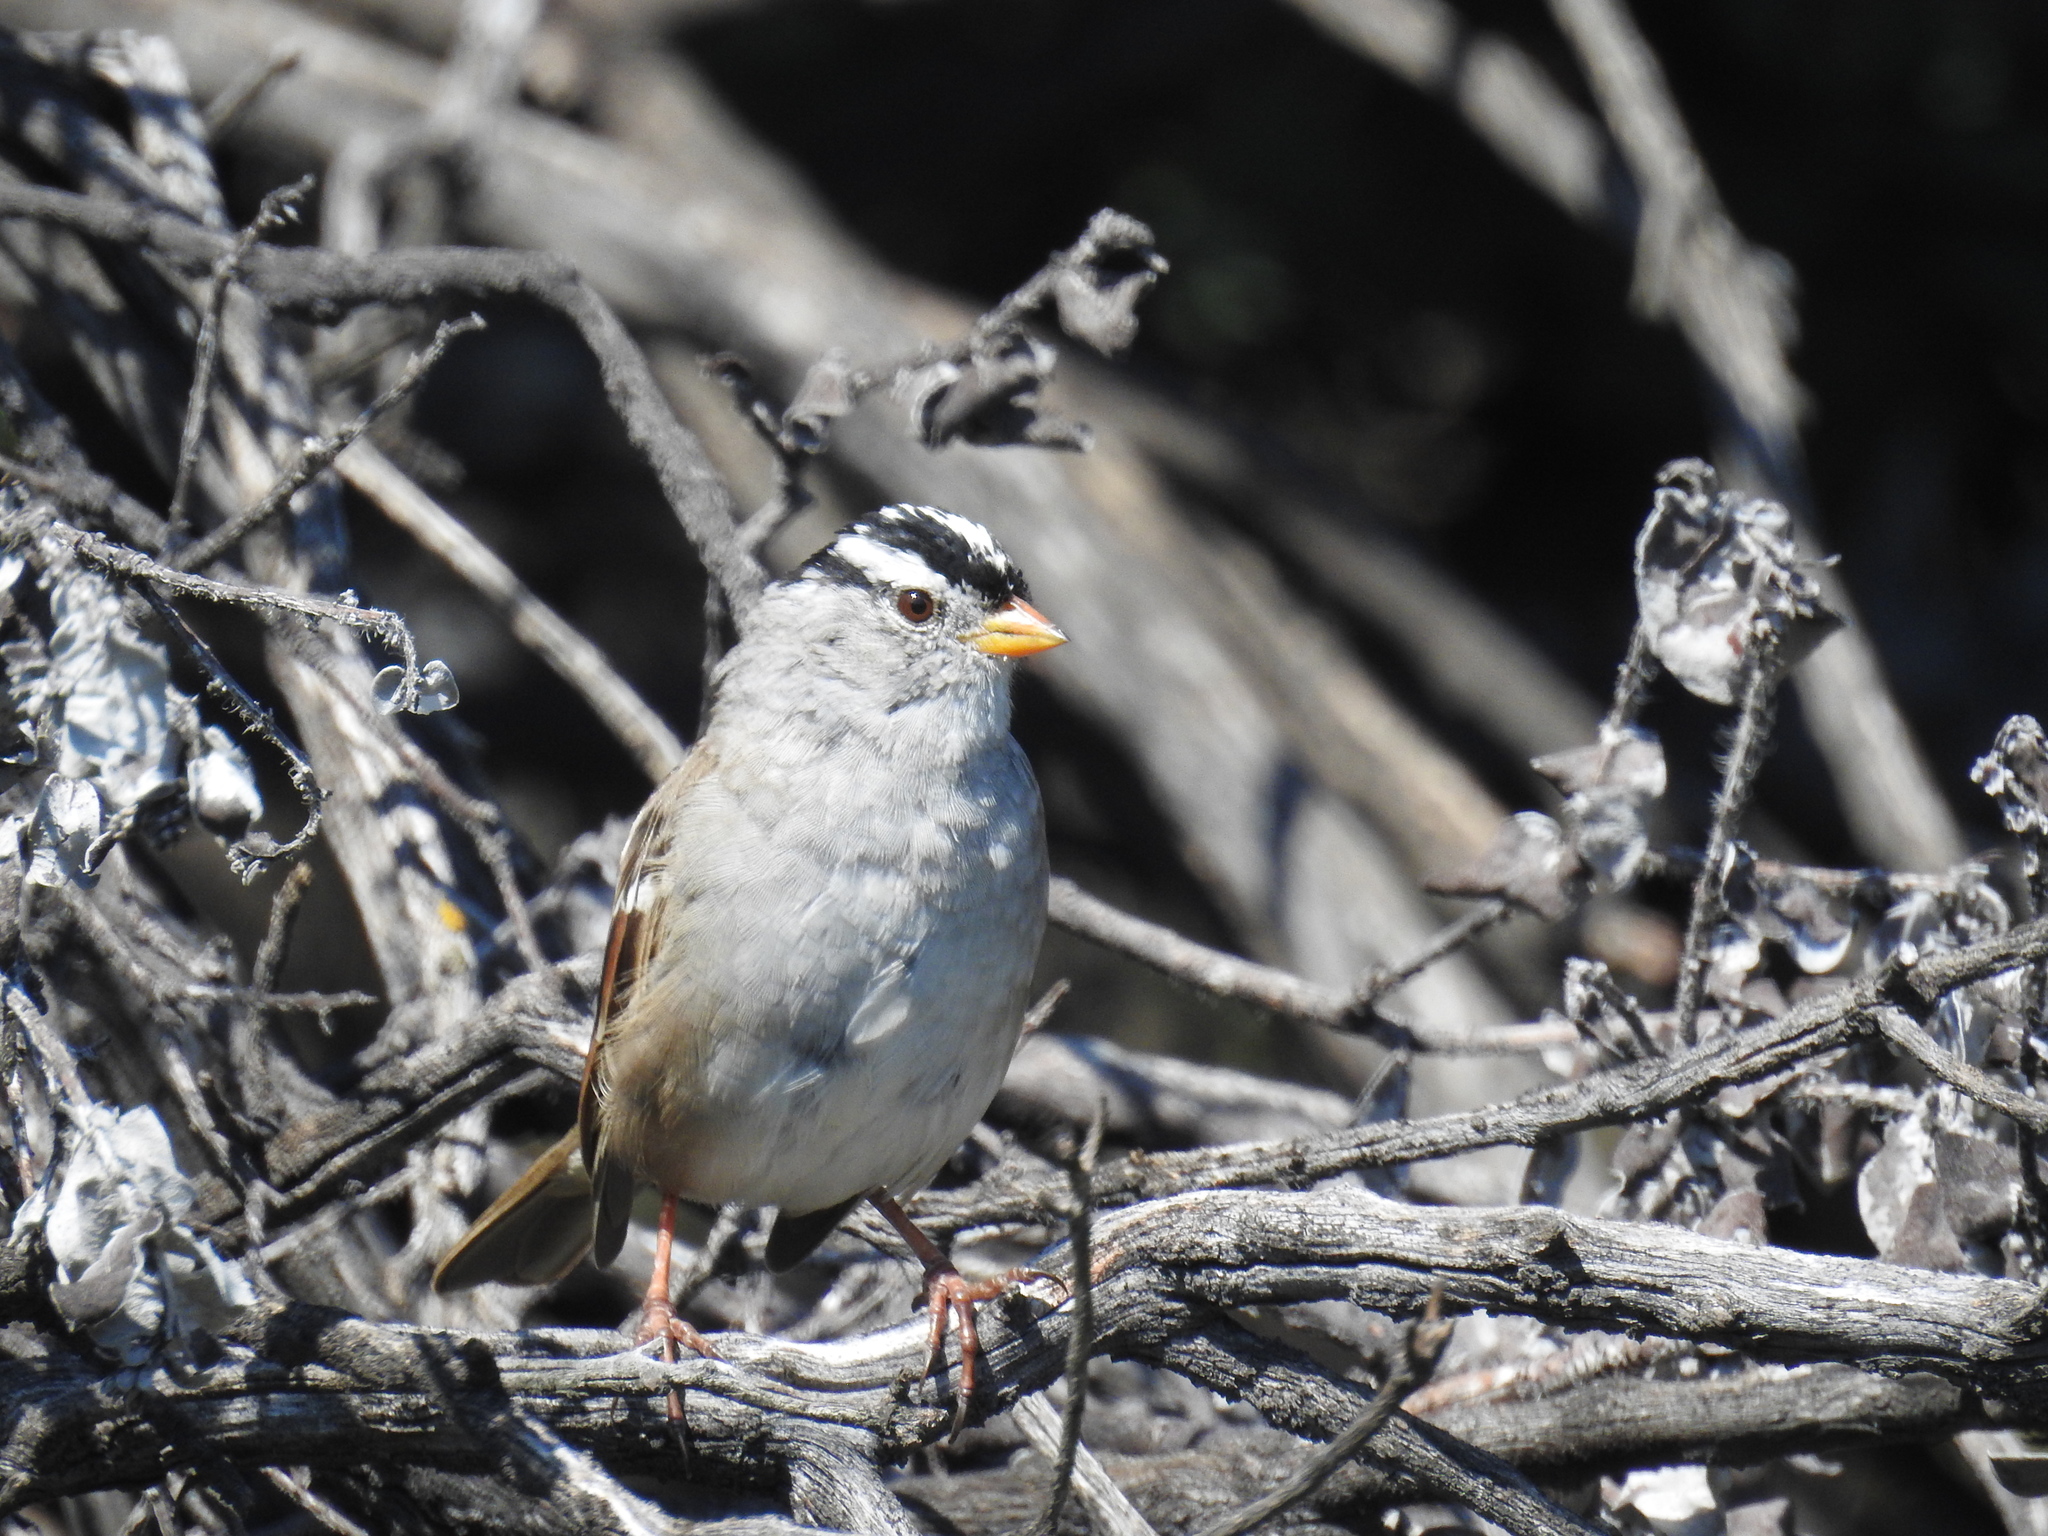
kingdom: Animalia
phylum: Chordata
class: Aves
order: Passeriformes
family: Passerellidae
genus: Zonotrichia
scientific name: Zonotrichia leucophrys
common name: White-crowned sparrow
